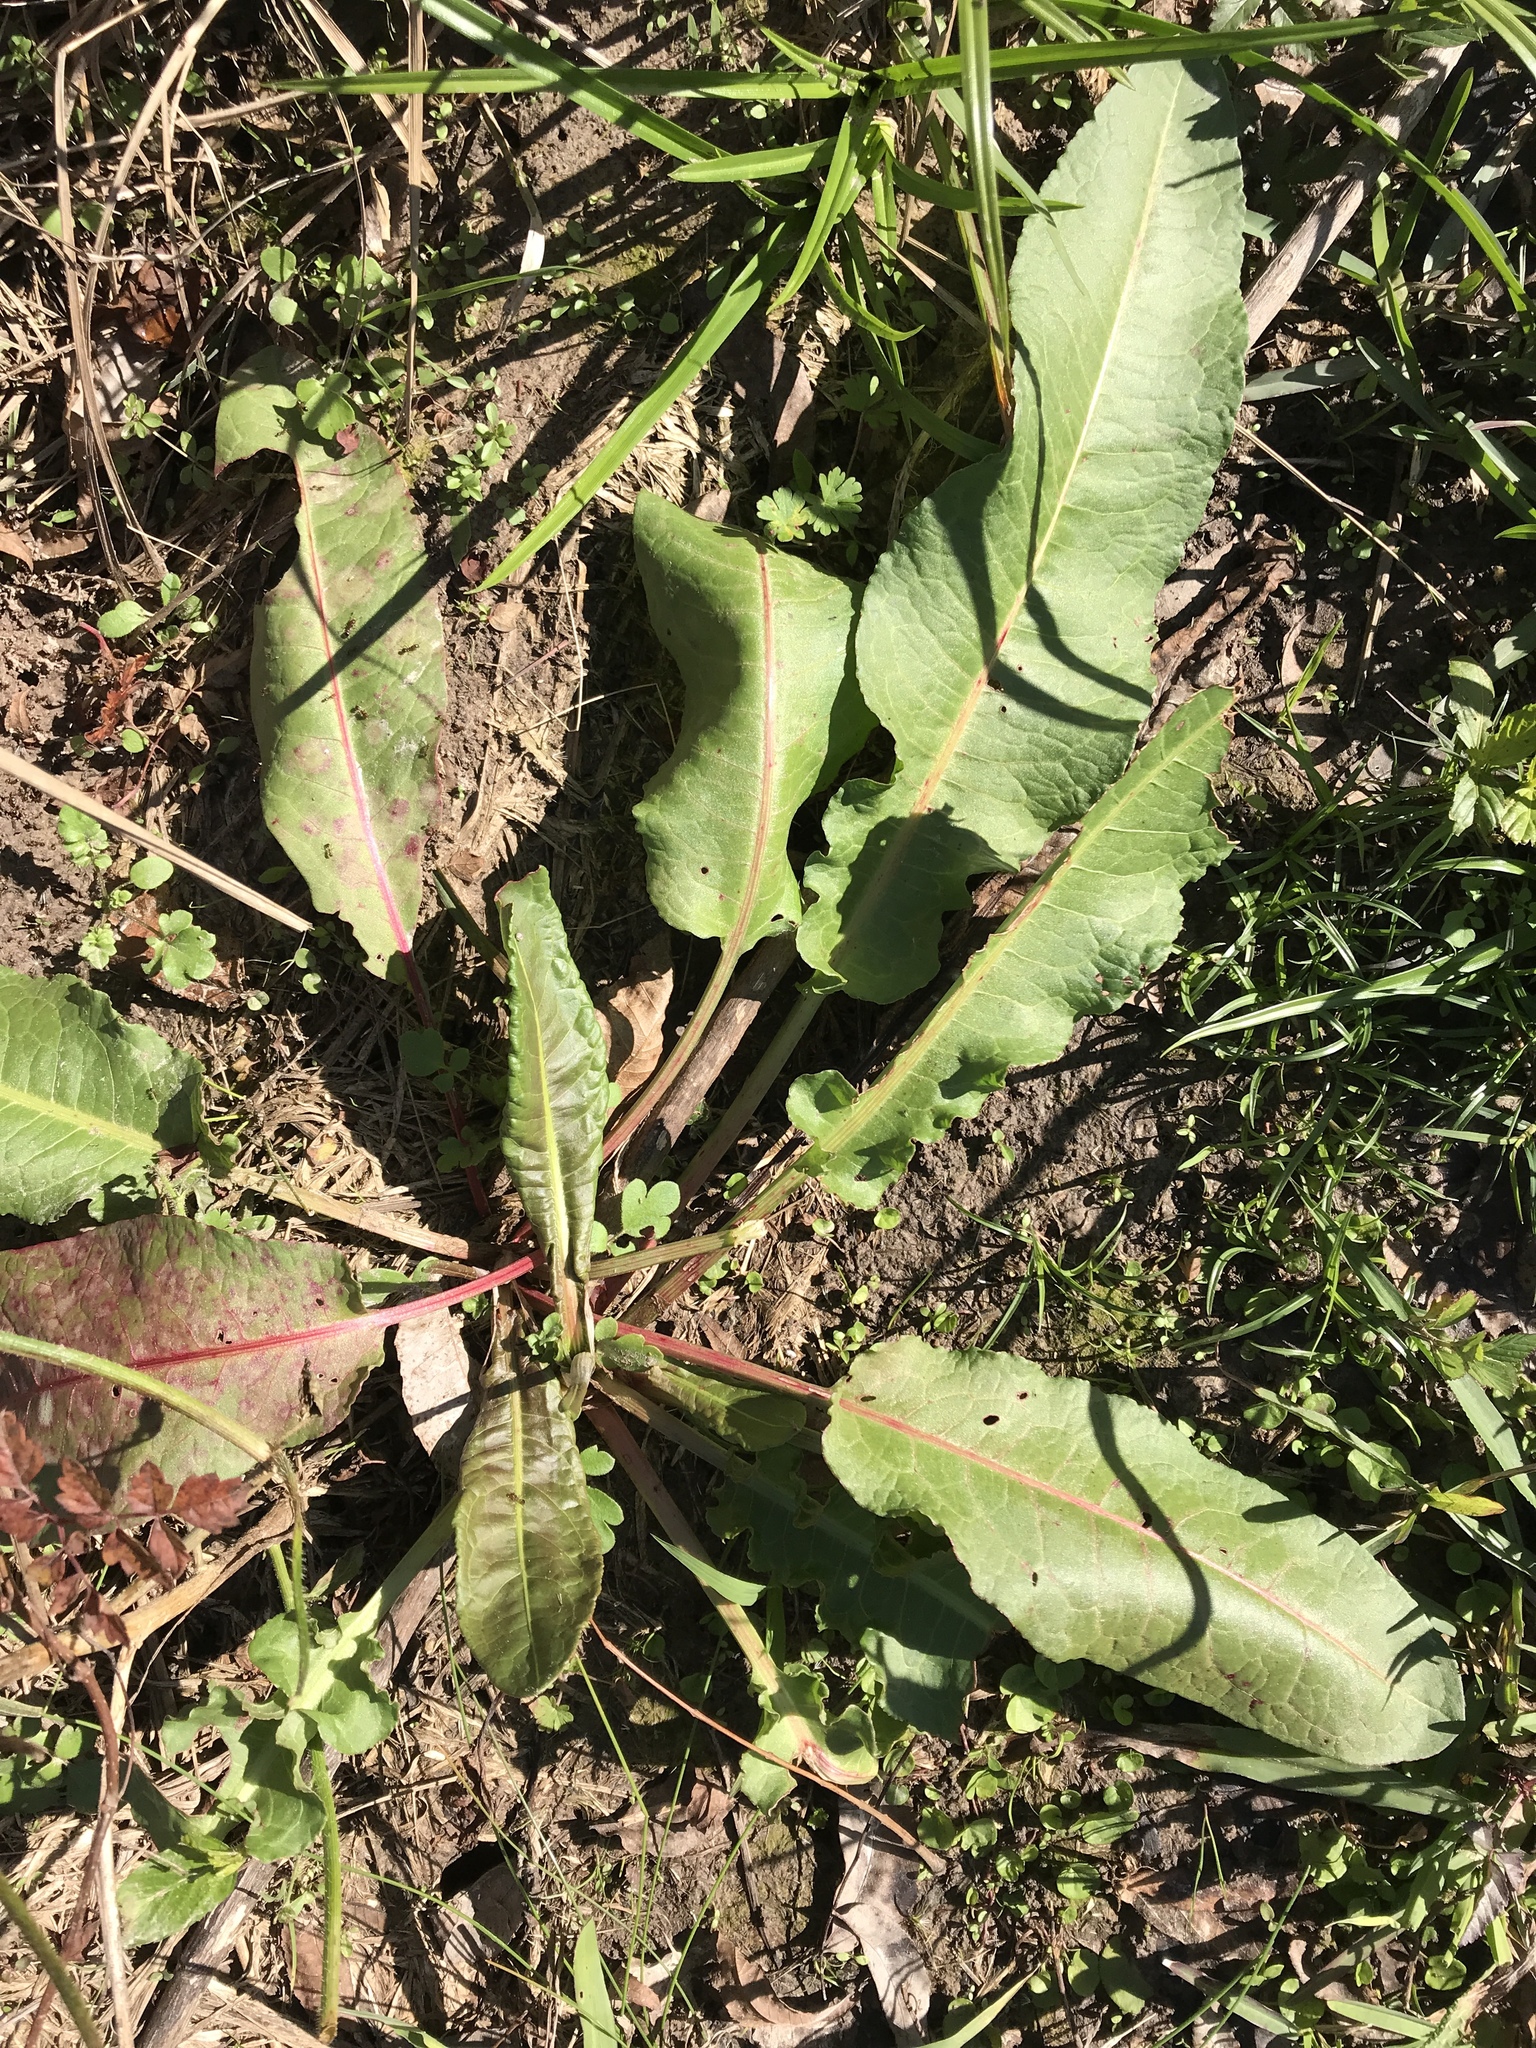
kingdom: Plantae
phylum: Tracheophyta
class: Magnoliopsida
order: Caryophyllales
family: Polygonaceae
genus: Rumex
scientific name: Rumex crispus
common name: Curled dock
